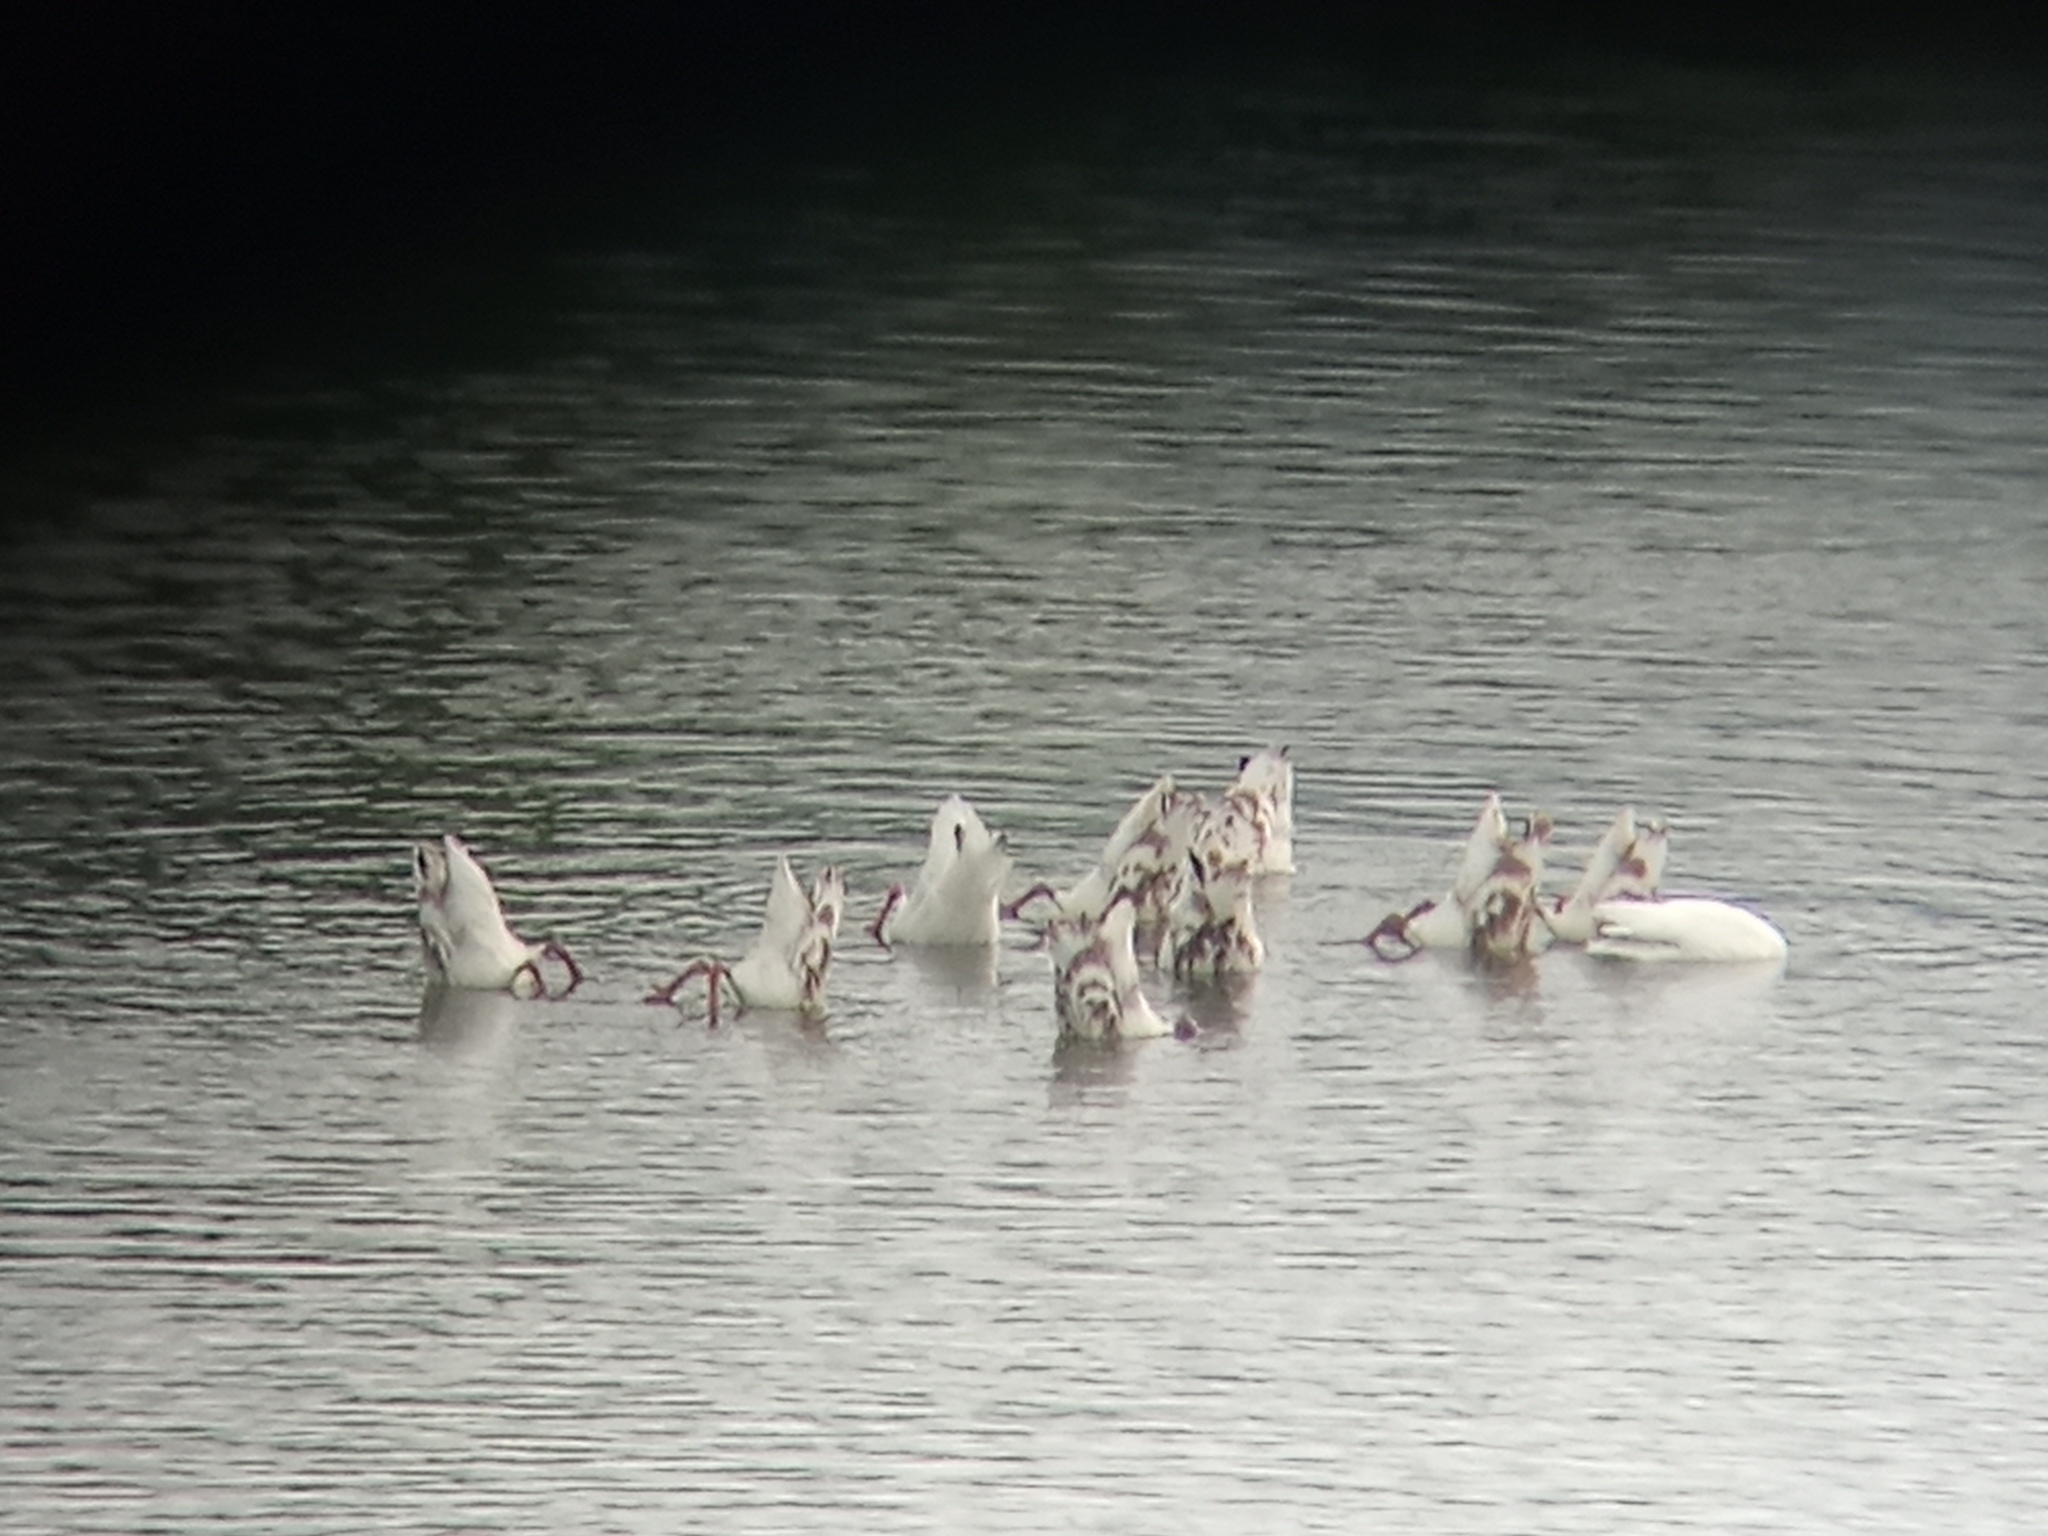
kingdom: Animalia
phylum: Chordata
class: Aves
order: Anseriformes
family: Anatidae
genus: Coscoroba
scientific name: Coscoroba coscoroba
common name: Coscoroba swan
